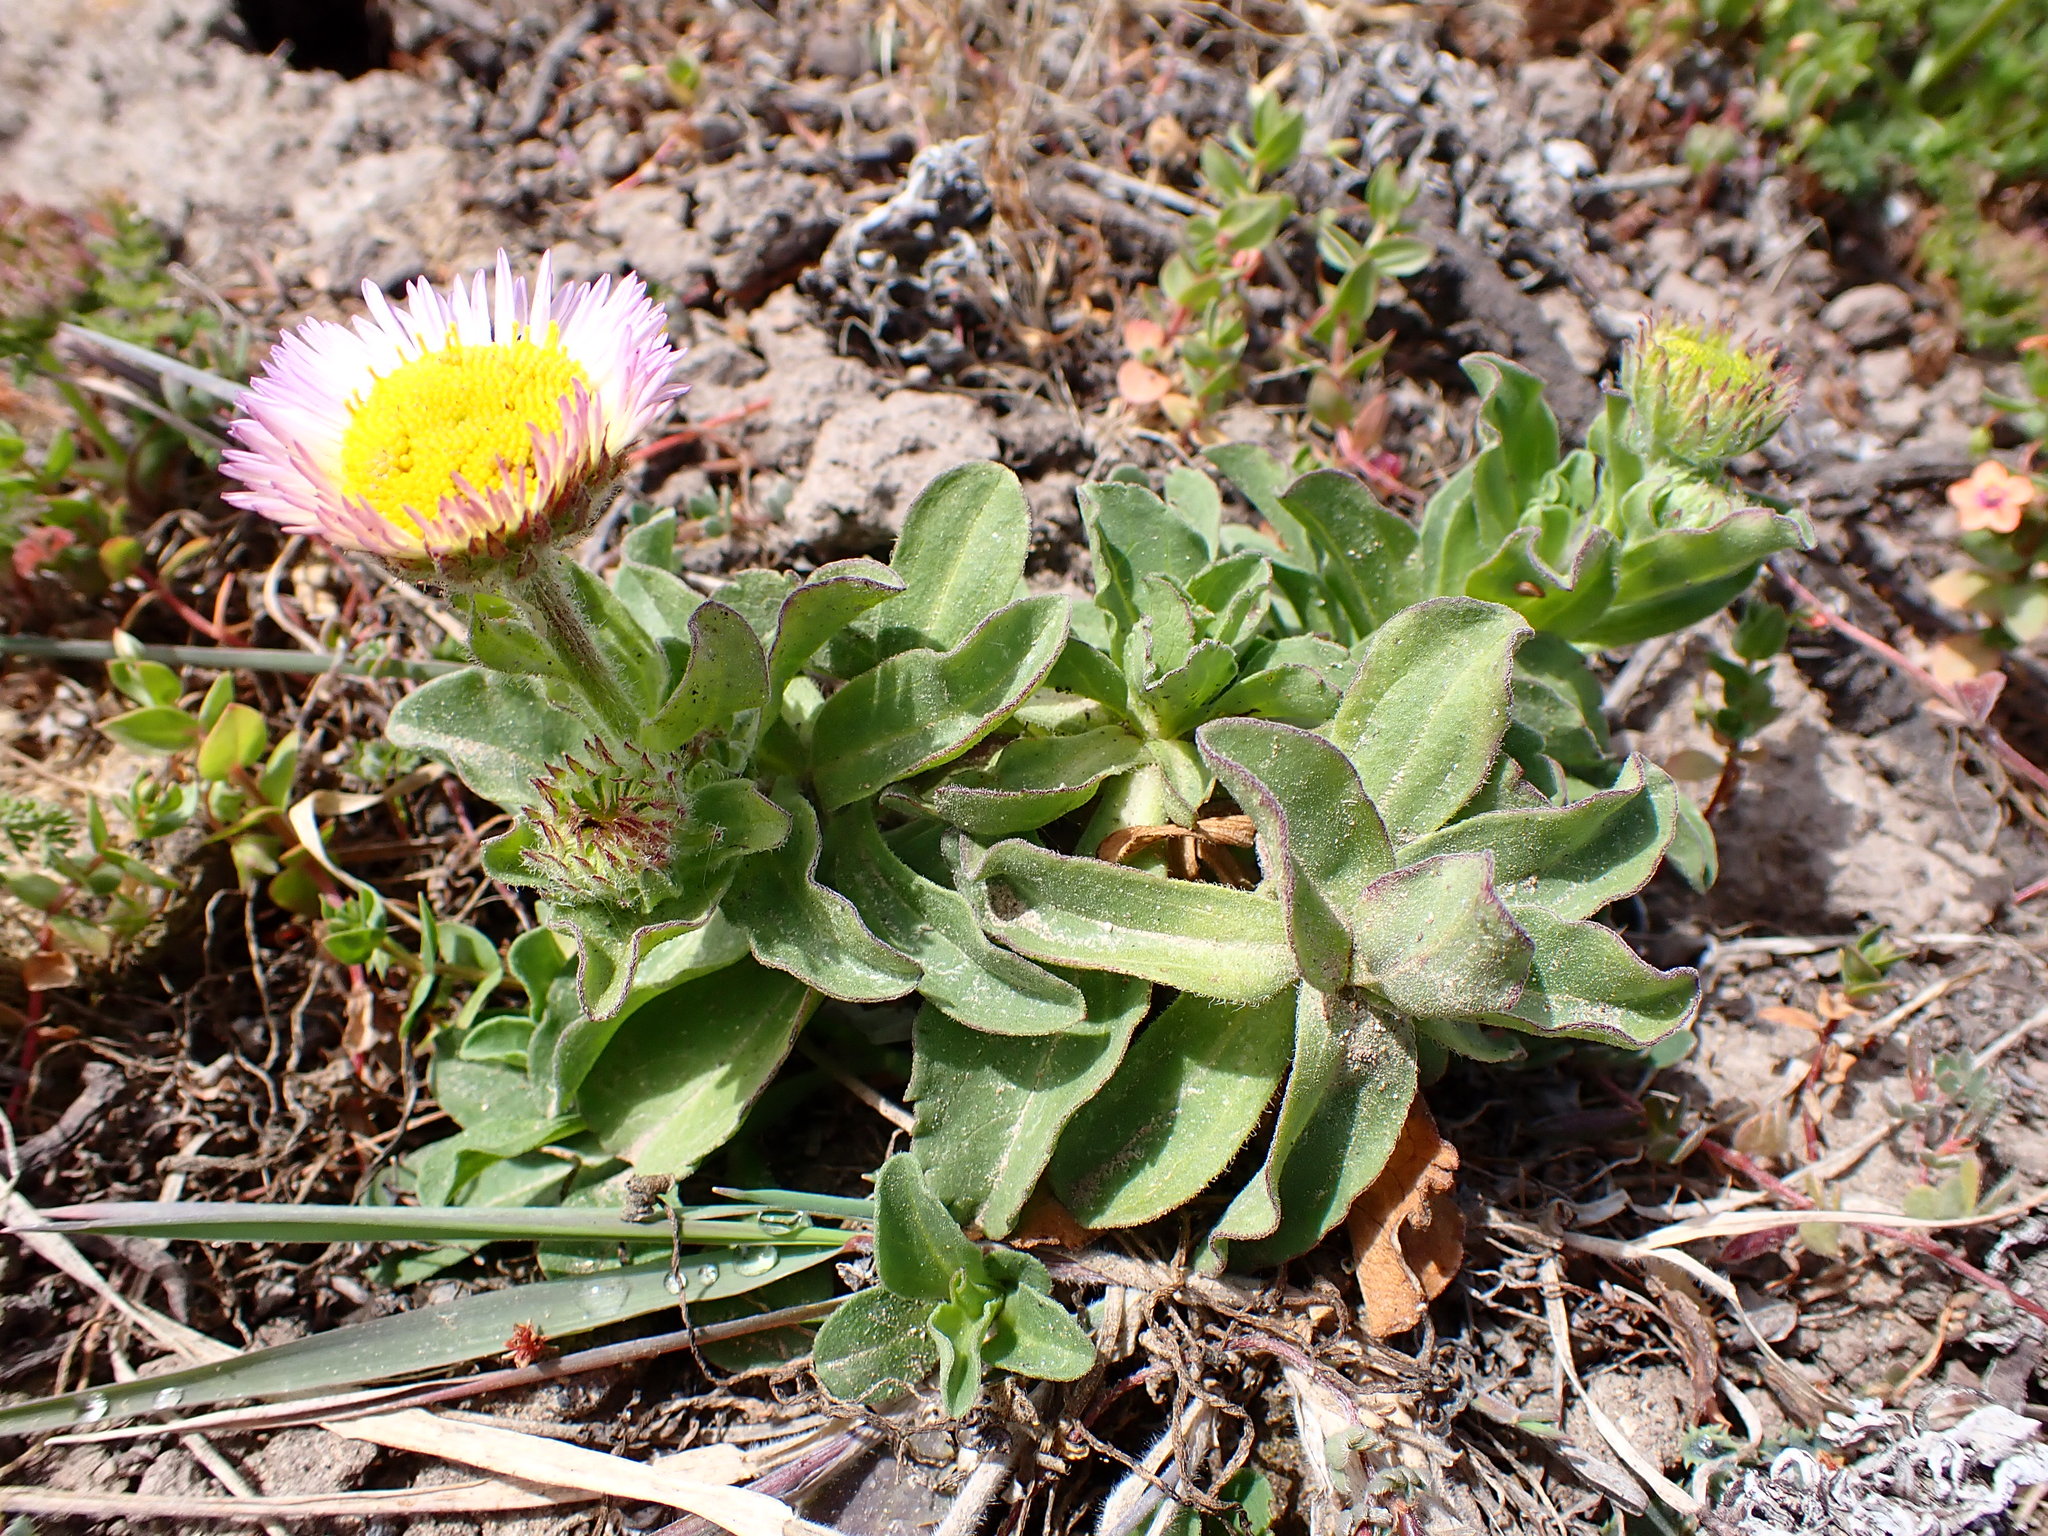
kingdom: Plantae
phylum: Tracheophyta
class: Magnoliopsida
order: Asterales
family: Asteraceae
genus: Erigeron
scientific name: Erigeron glaucus
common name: Seaside daisy
